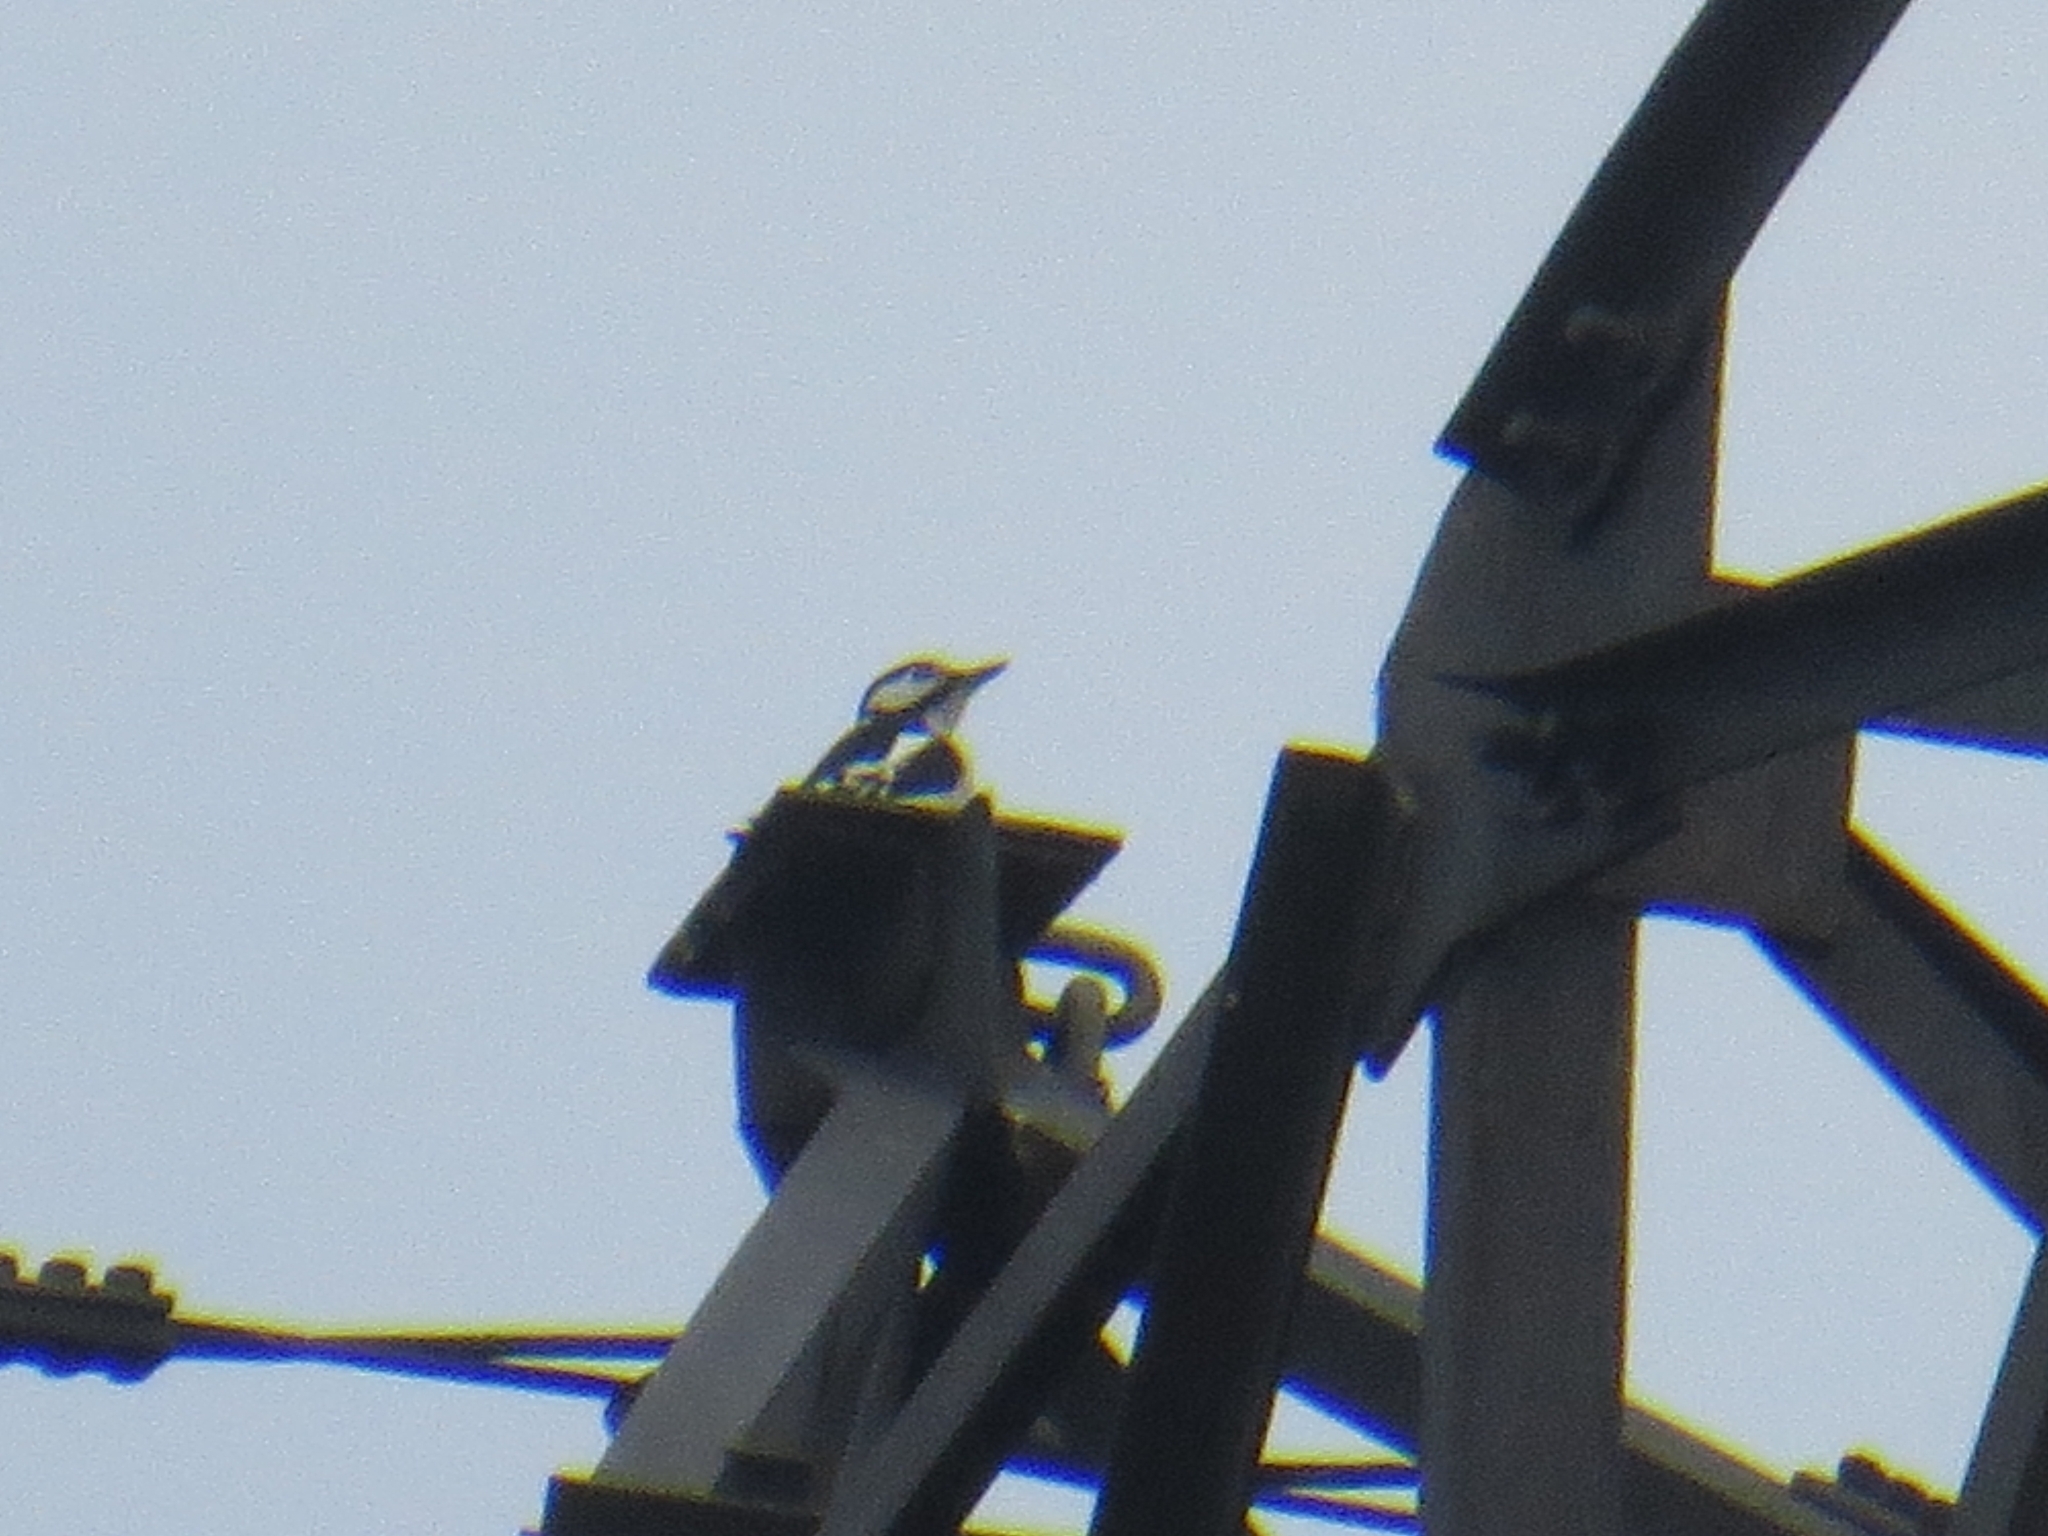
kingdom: Animalia
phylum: Chordata
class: Aves
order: Piciformes
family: Picidae
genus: Dendrocopos
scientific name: Dendrocopos major
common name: Great spotted woodpecker
